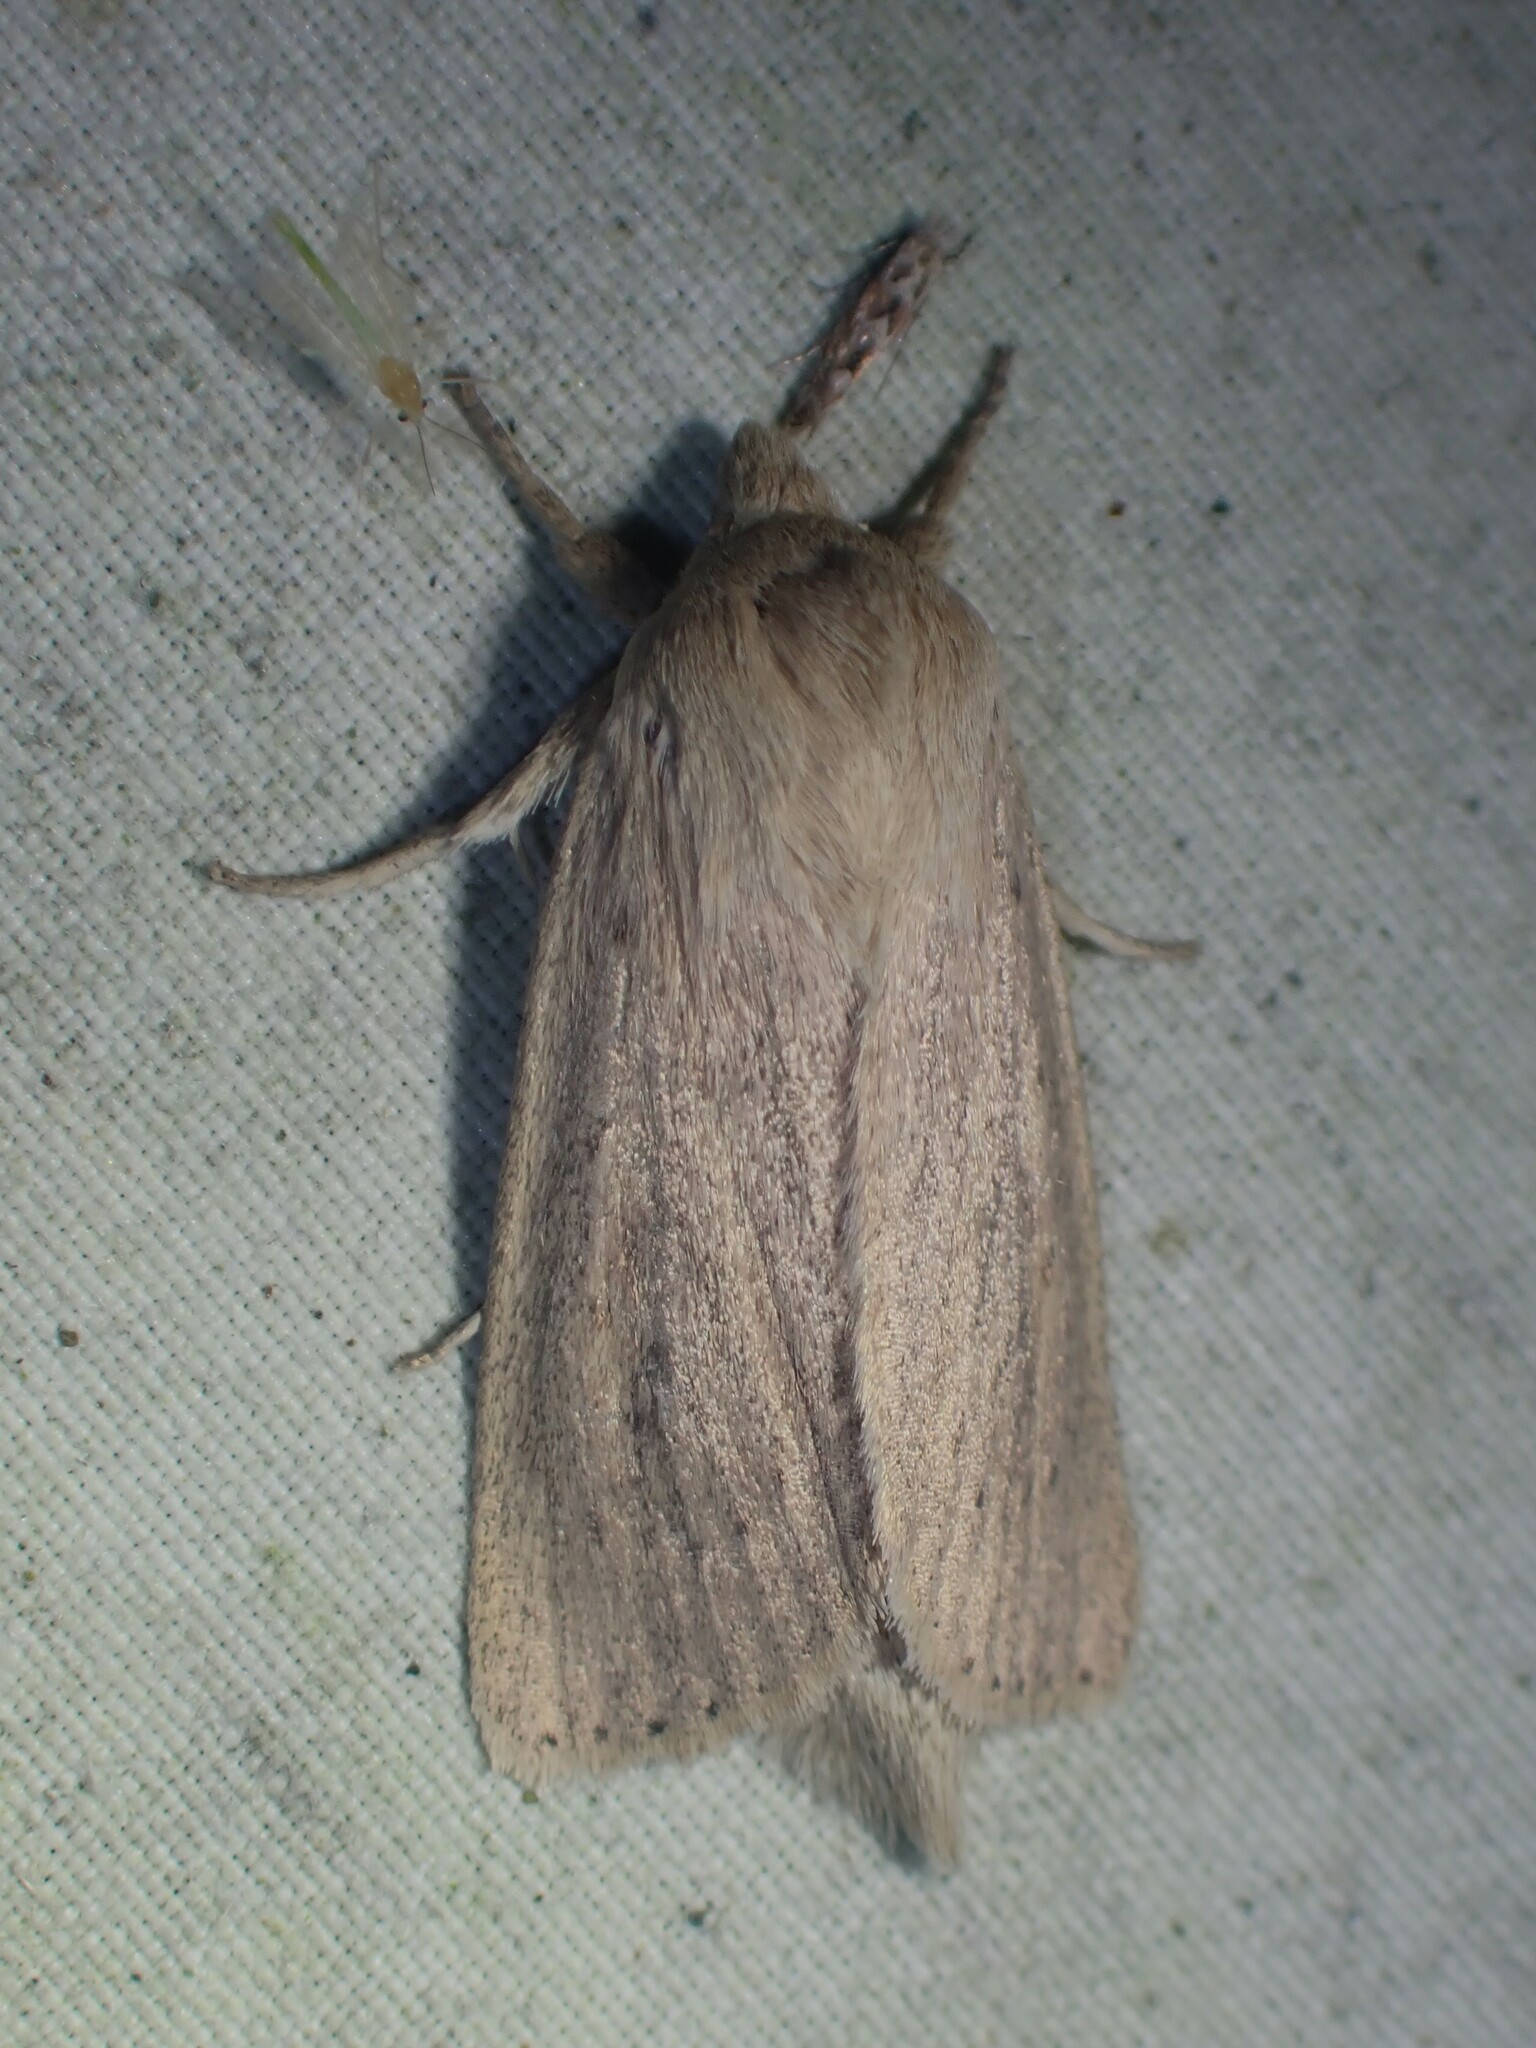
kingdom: Animalia
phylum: Arthropoda
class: Insecta
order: Lepidoptera
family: Noctuidae
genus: Globia
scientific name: Globia oblonga
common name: Oblong sedge borer moth
